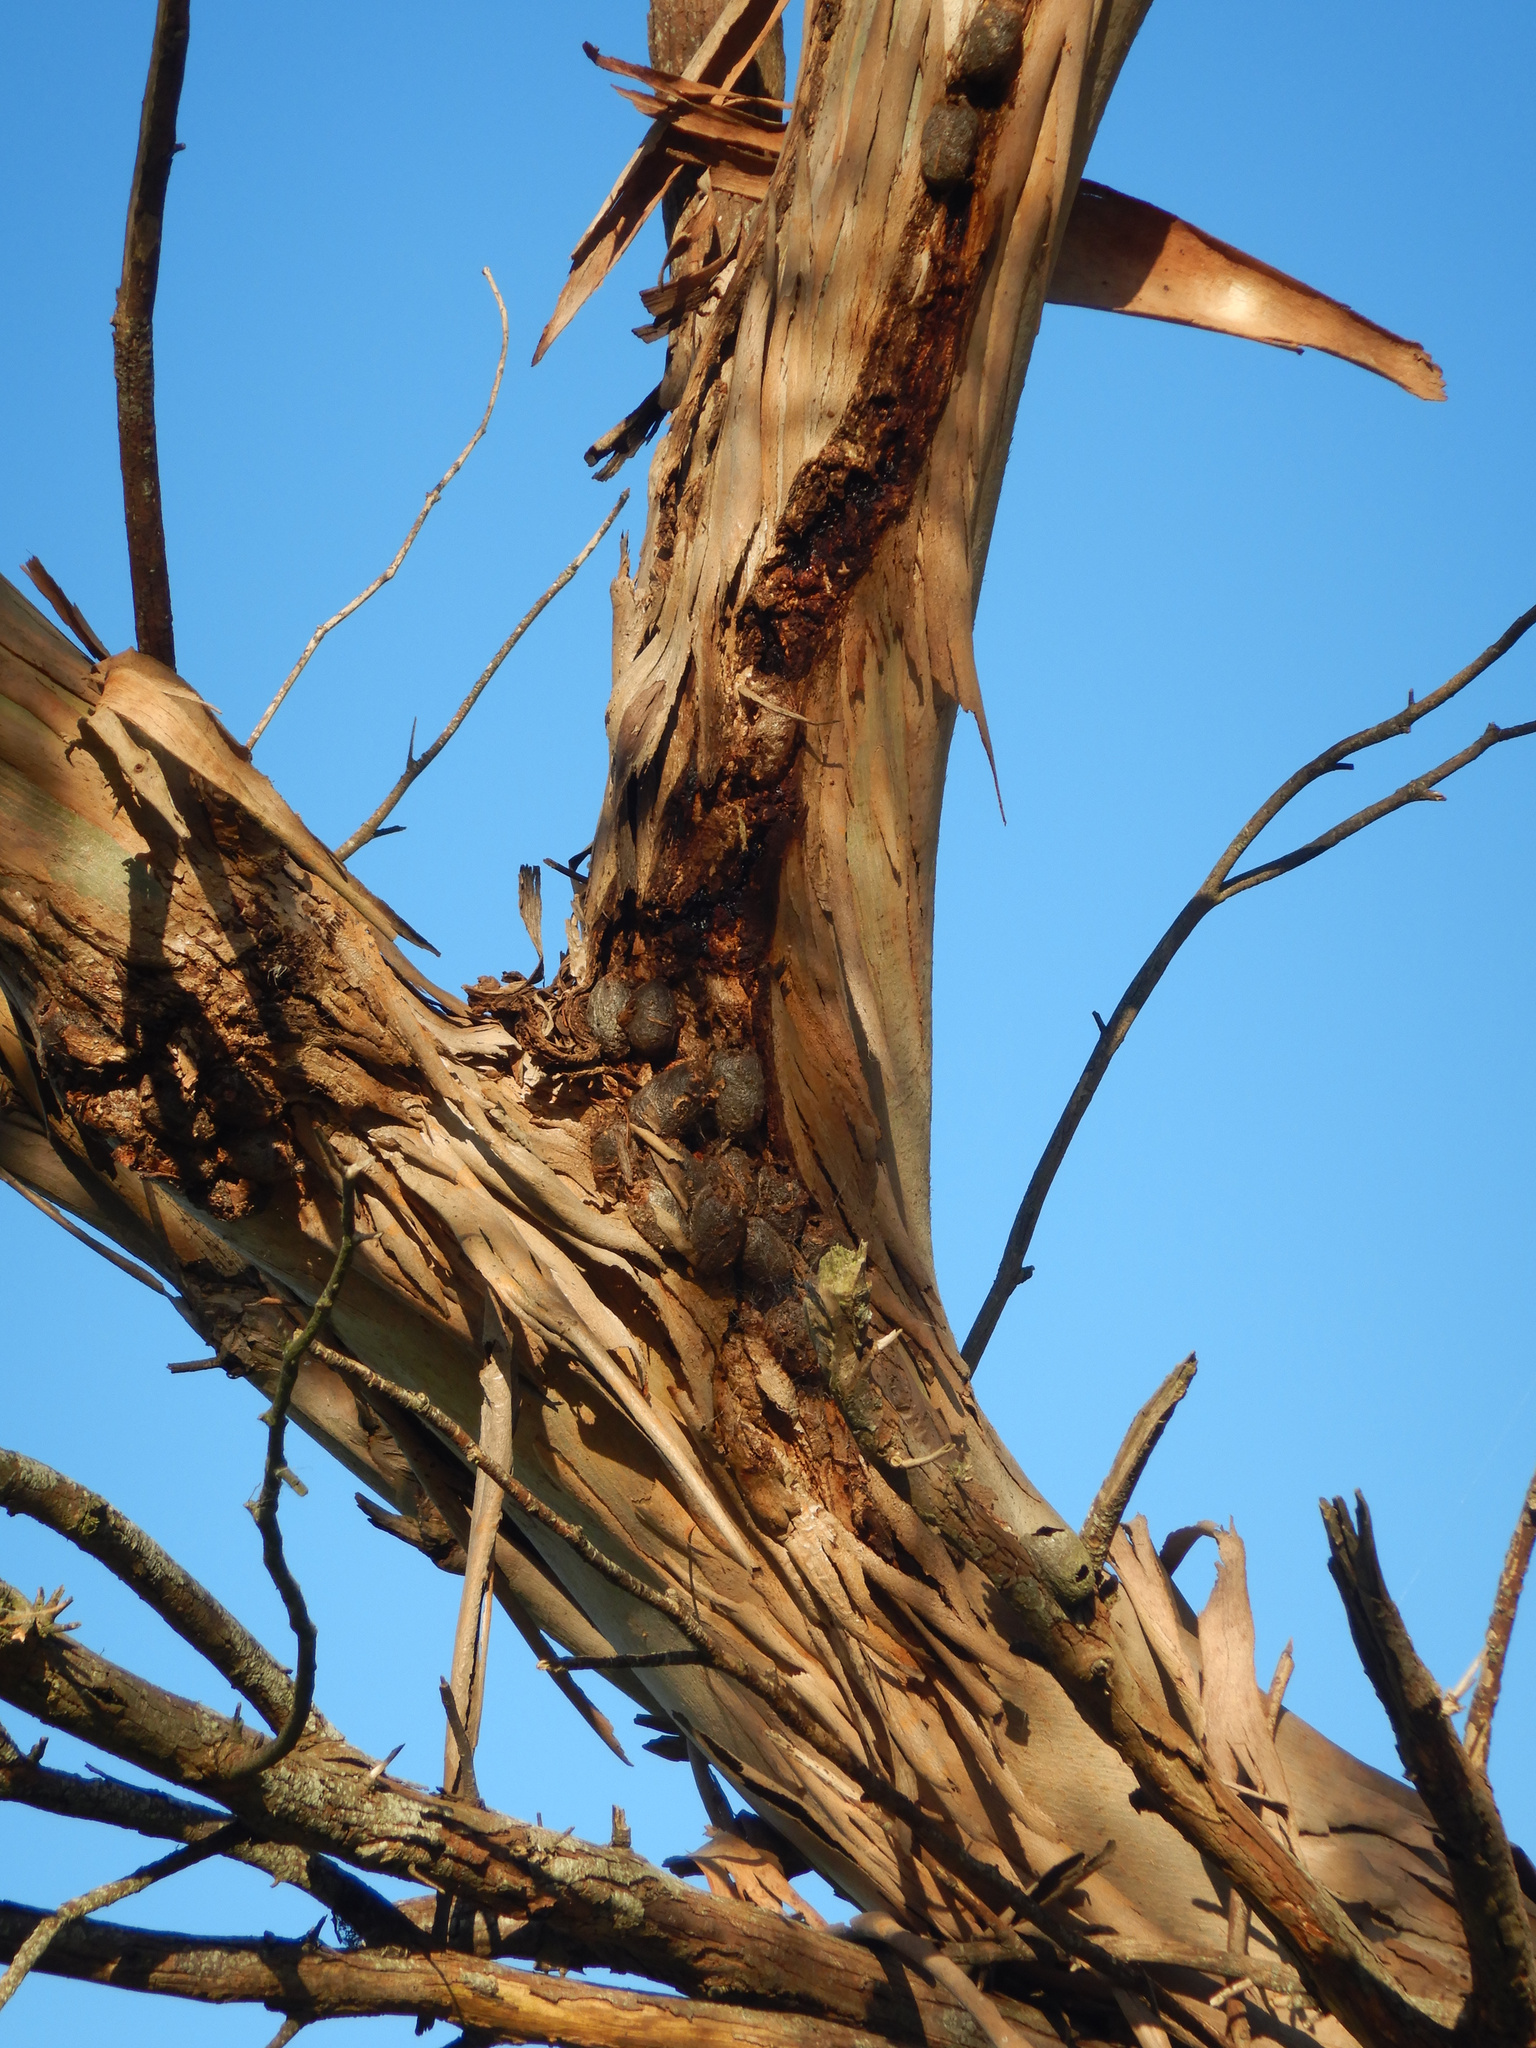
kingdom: Animalia
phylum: Arthropoda
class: Insecta
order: Lepidoptera
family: Saturniidae
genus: Opodiphthera
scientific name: Opodiphthera
